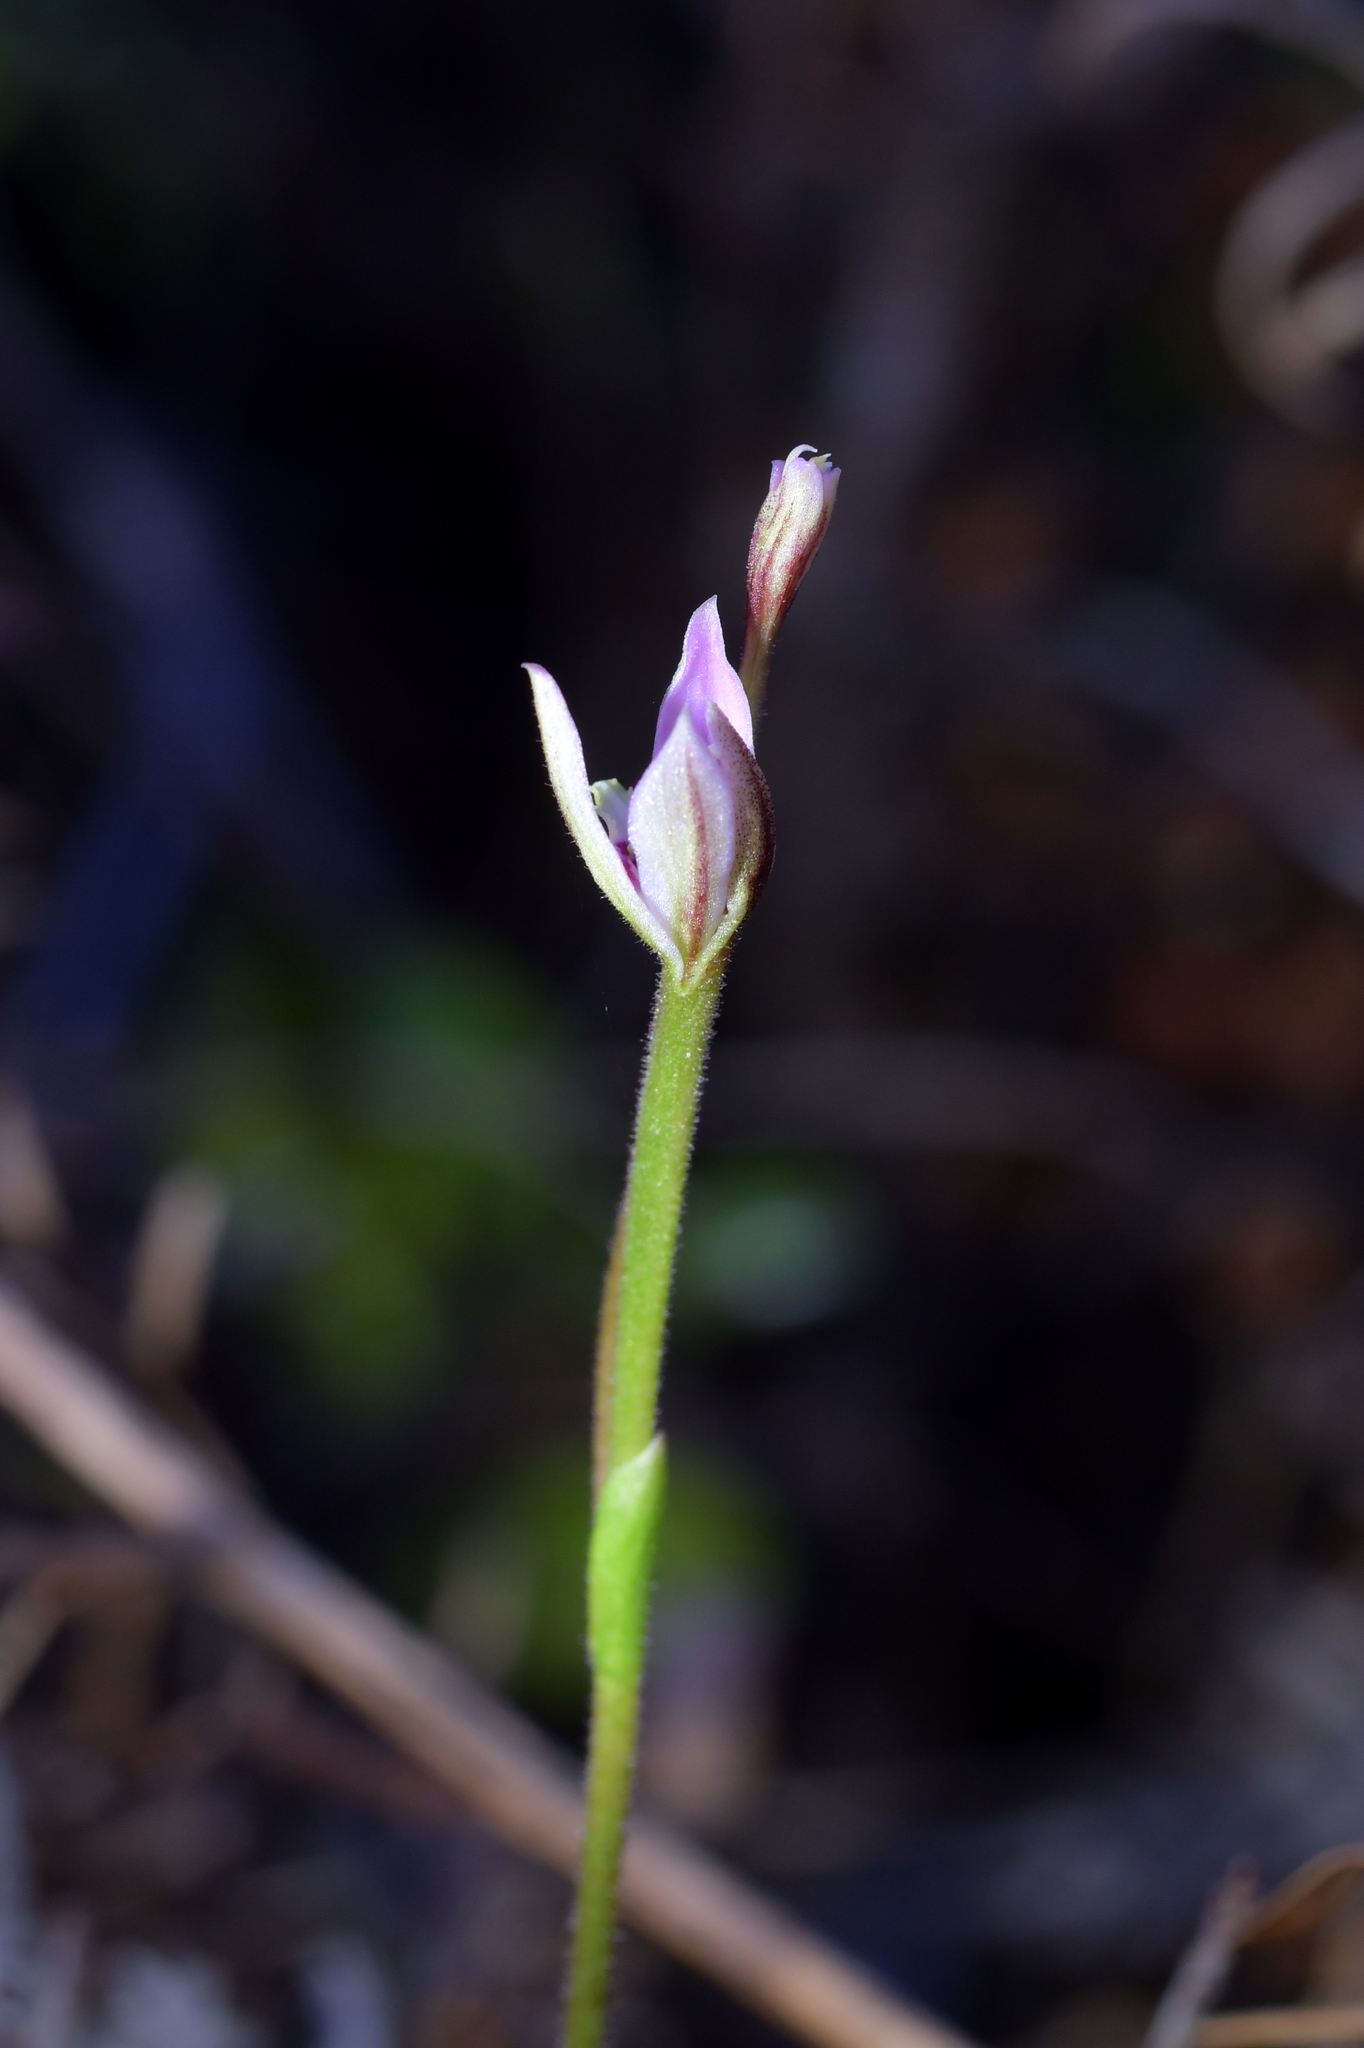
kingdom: Plantae
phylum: Tracheophyta
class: Liliopsida
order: Asparagales
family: Orchidaceae
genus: Caladenia
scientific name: Caladenia variegata
